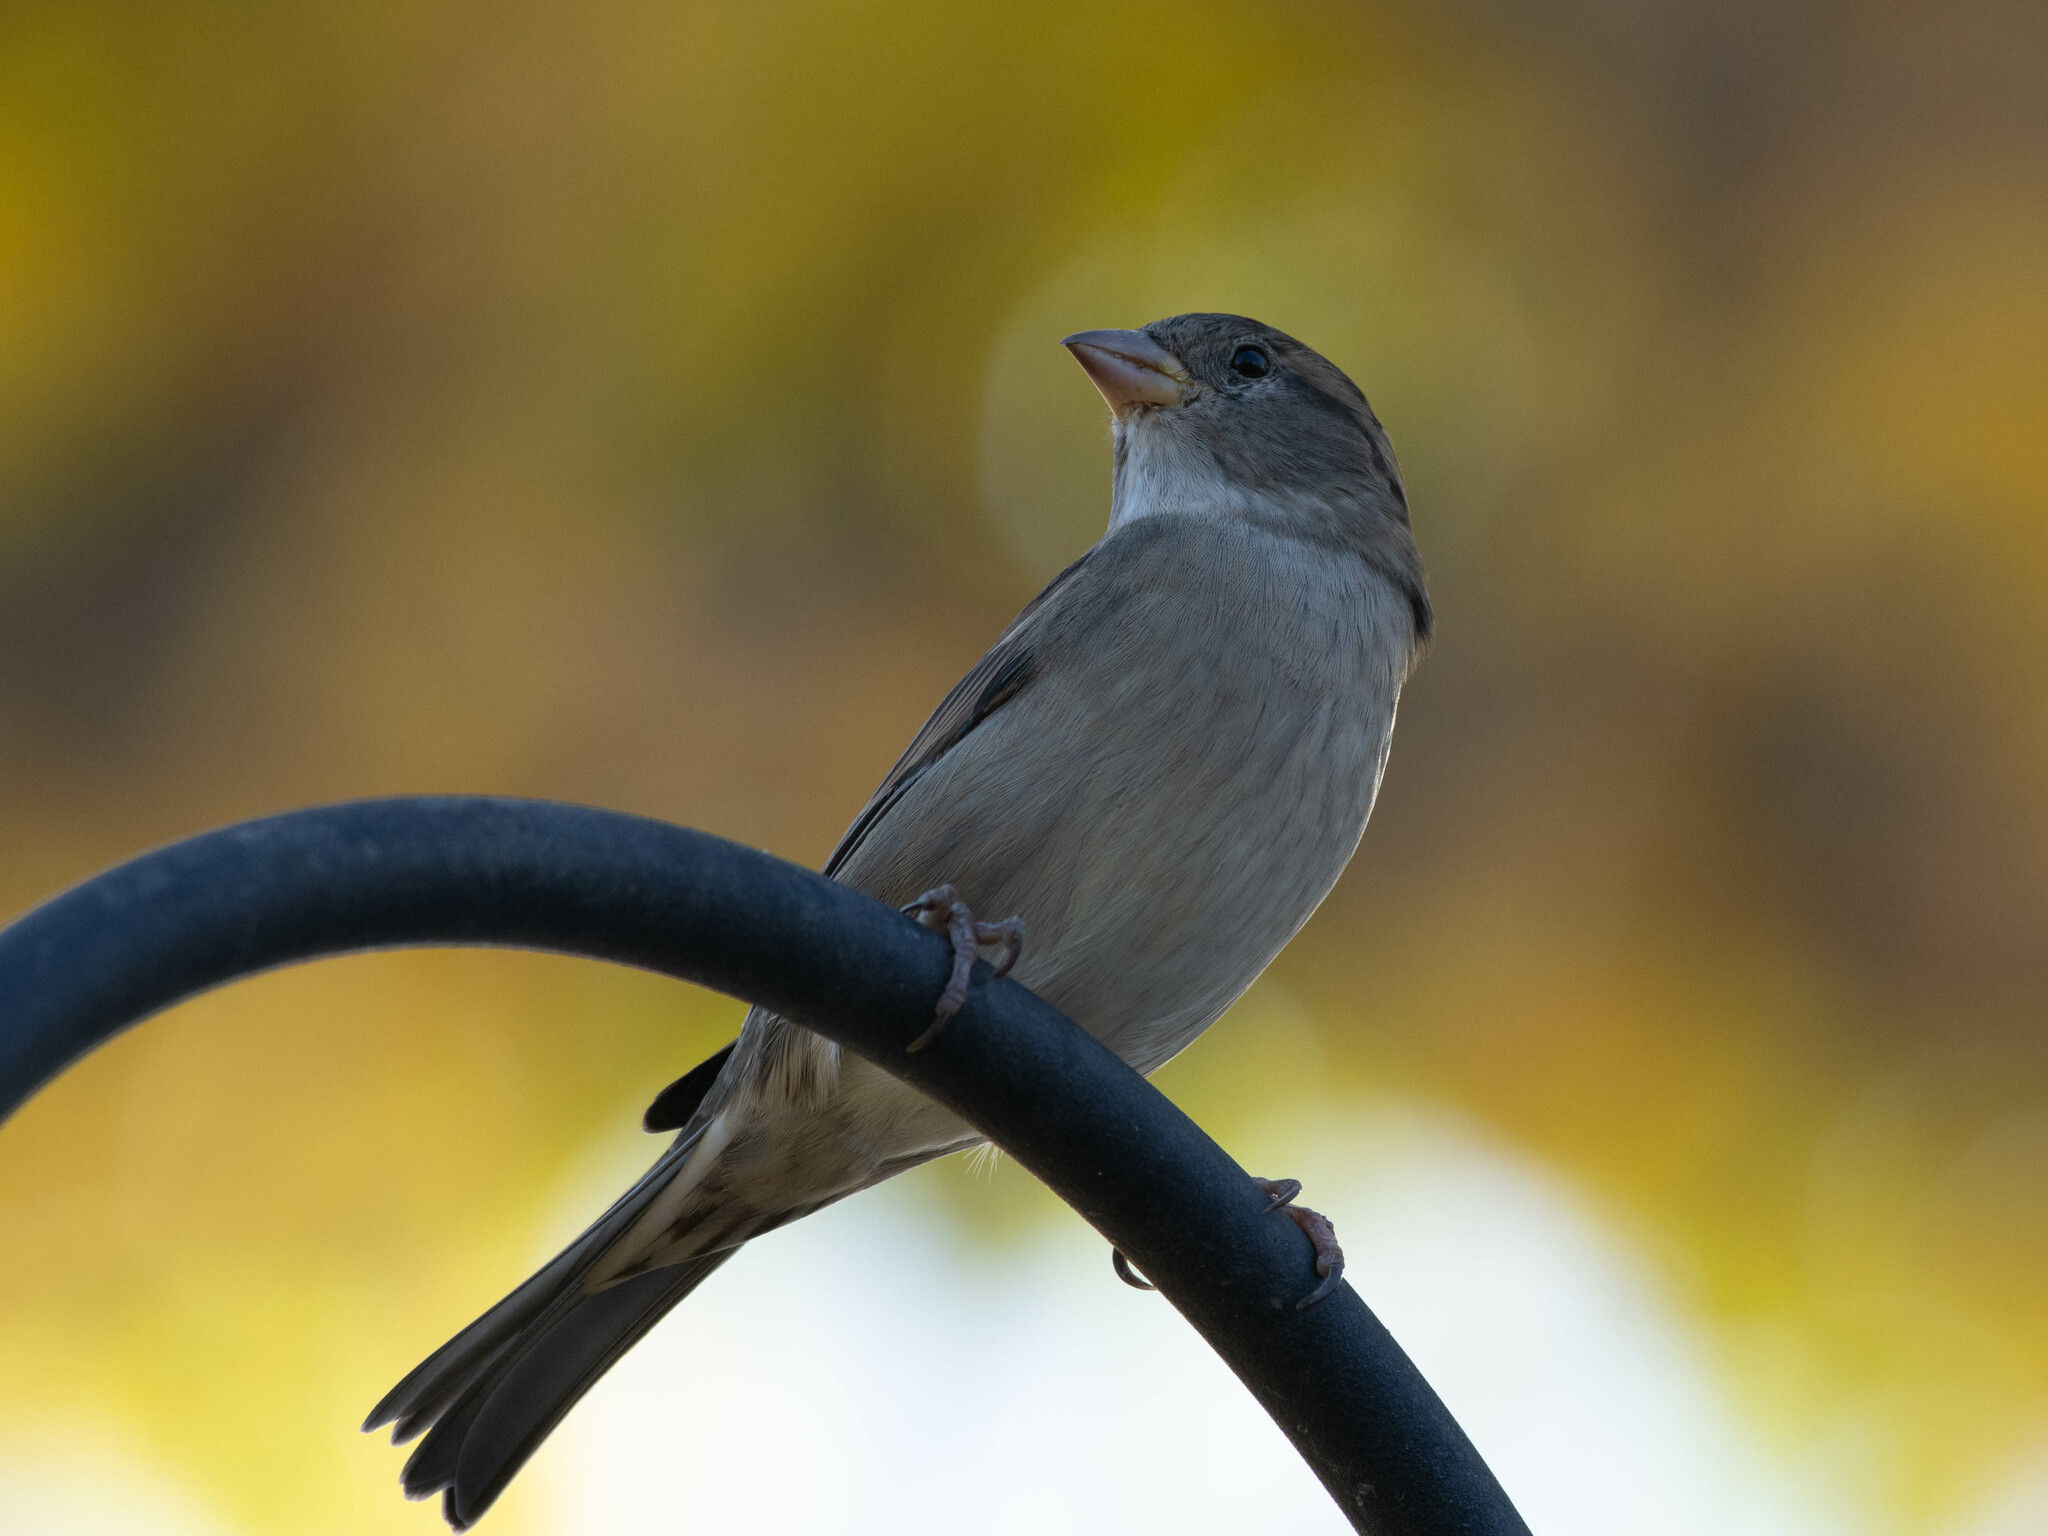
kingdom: Animalia
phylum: Chordata
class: Aves
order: Passeriformes
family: Passeridae
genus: Passer
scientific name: Passer domesticus
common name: House sparrow
